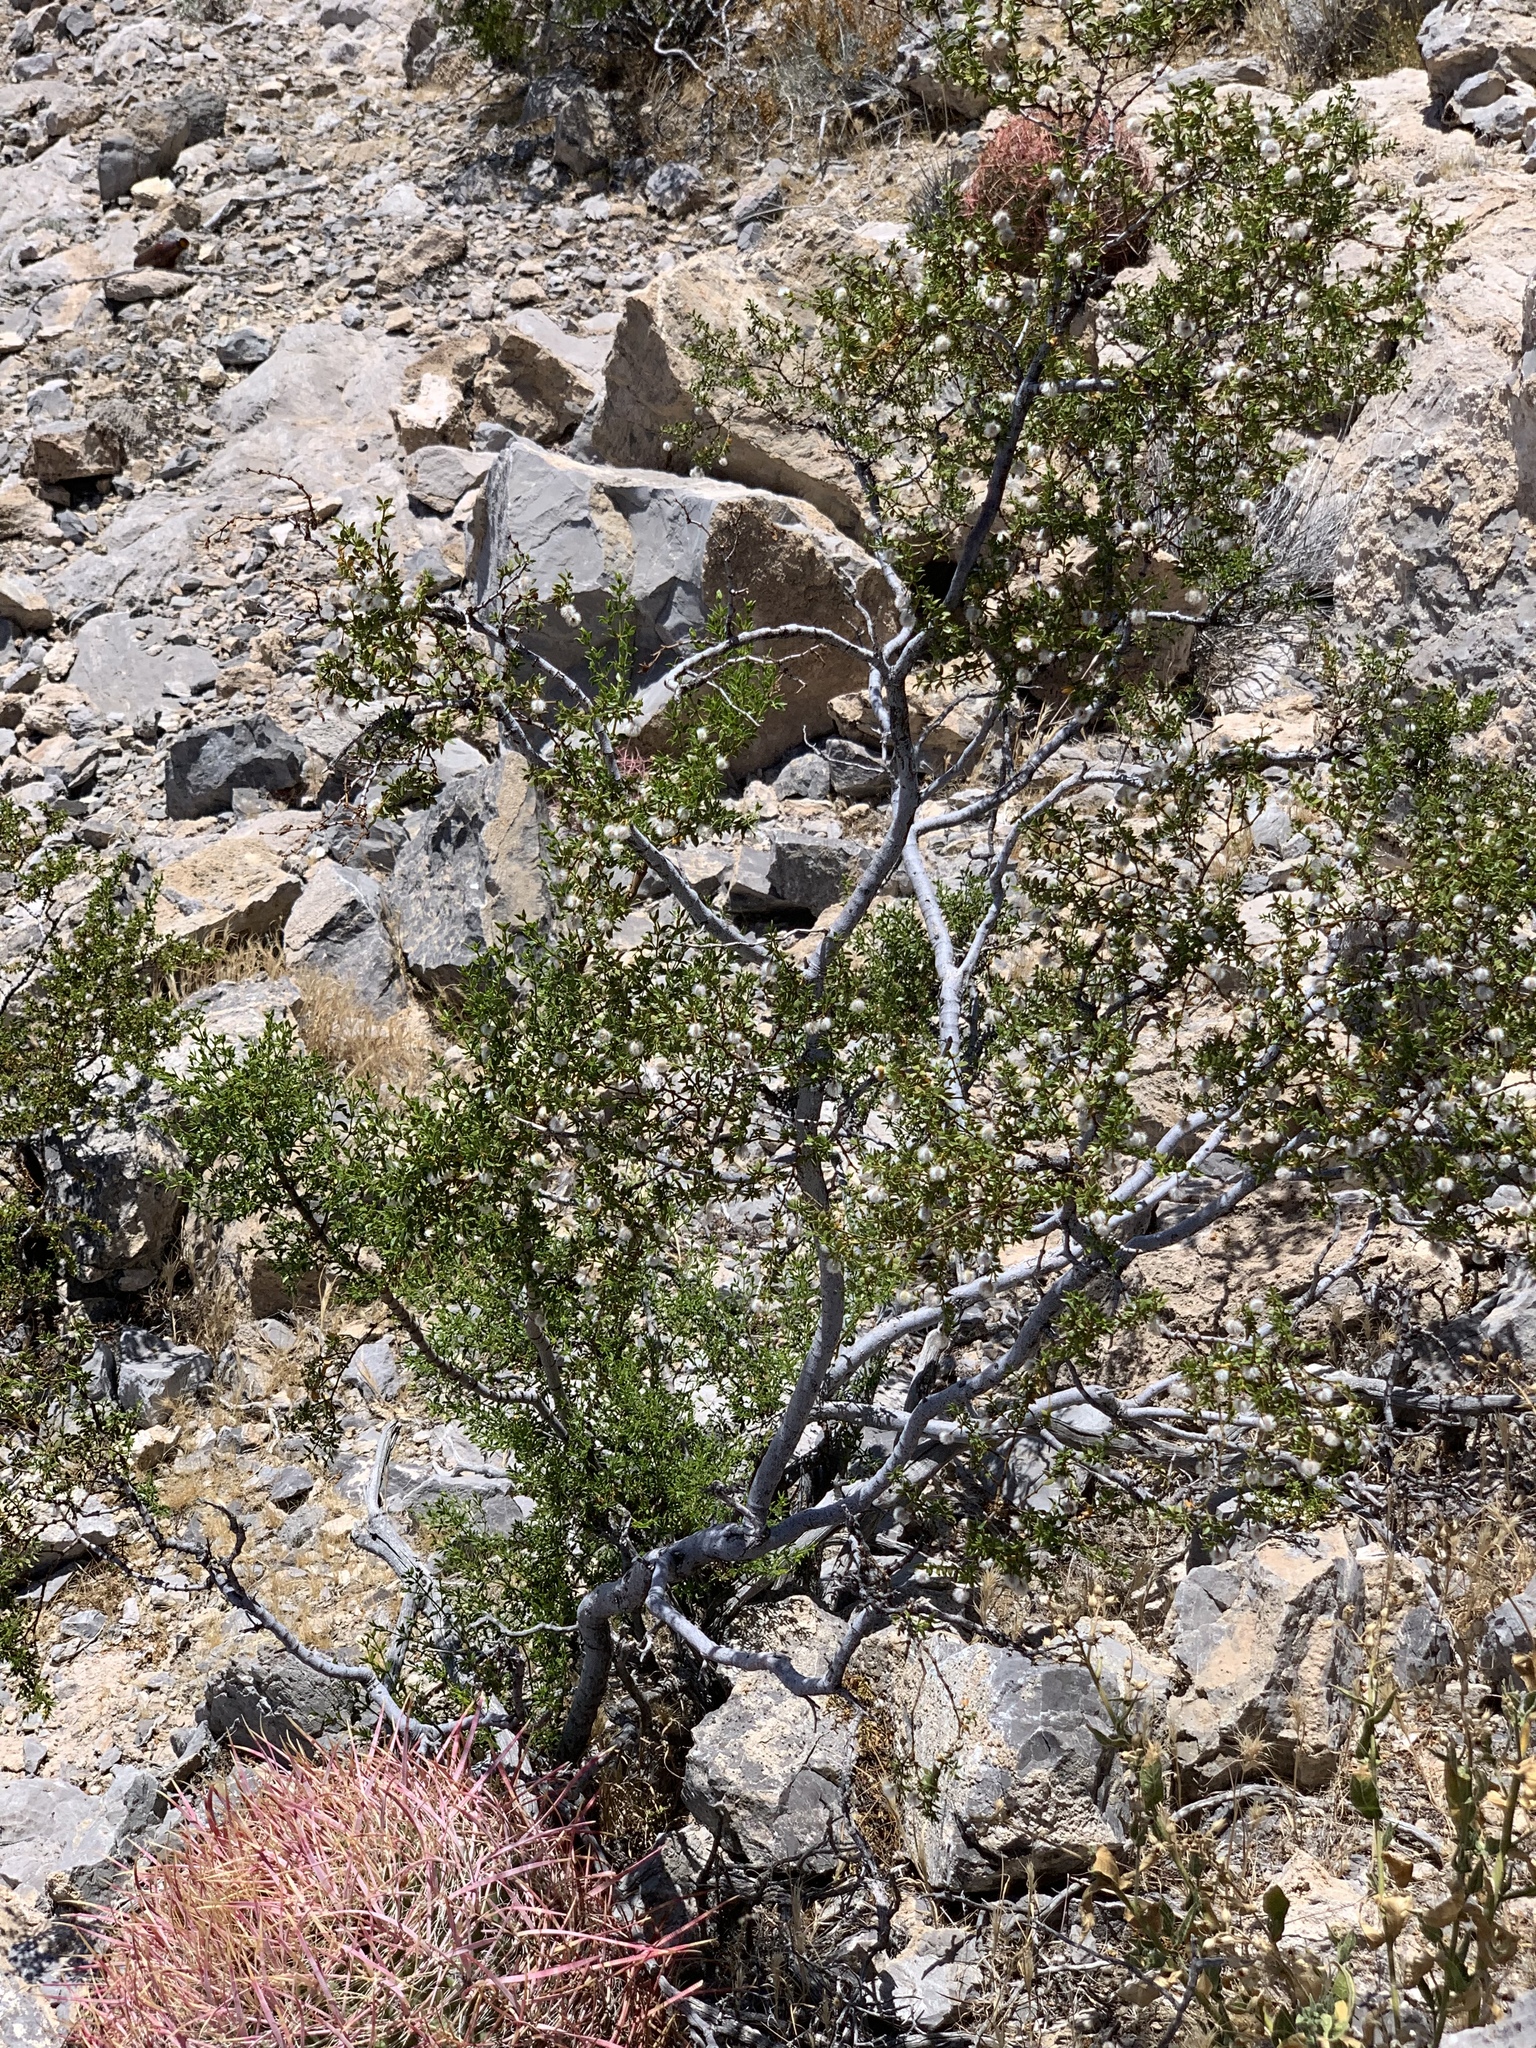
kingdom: Plantae
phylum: Tracheophyta
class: Magnoliopsida
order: Zygophyllales
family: Zygophyllaceae
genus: Larrea
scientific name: Larrea tridentata
